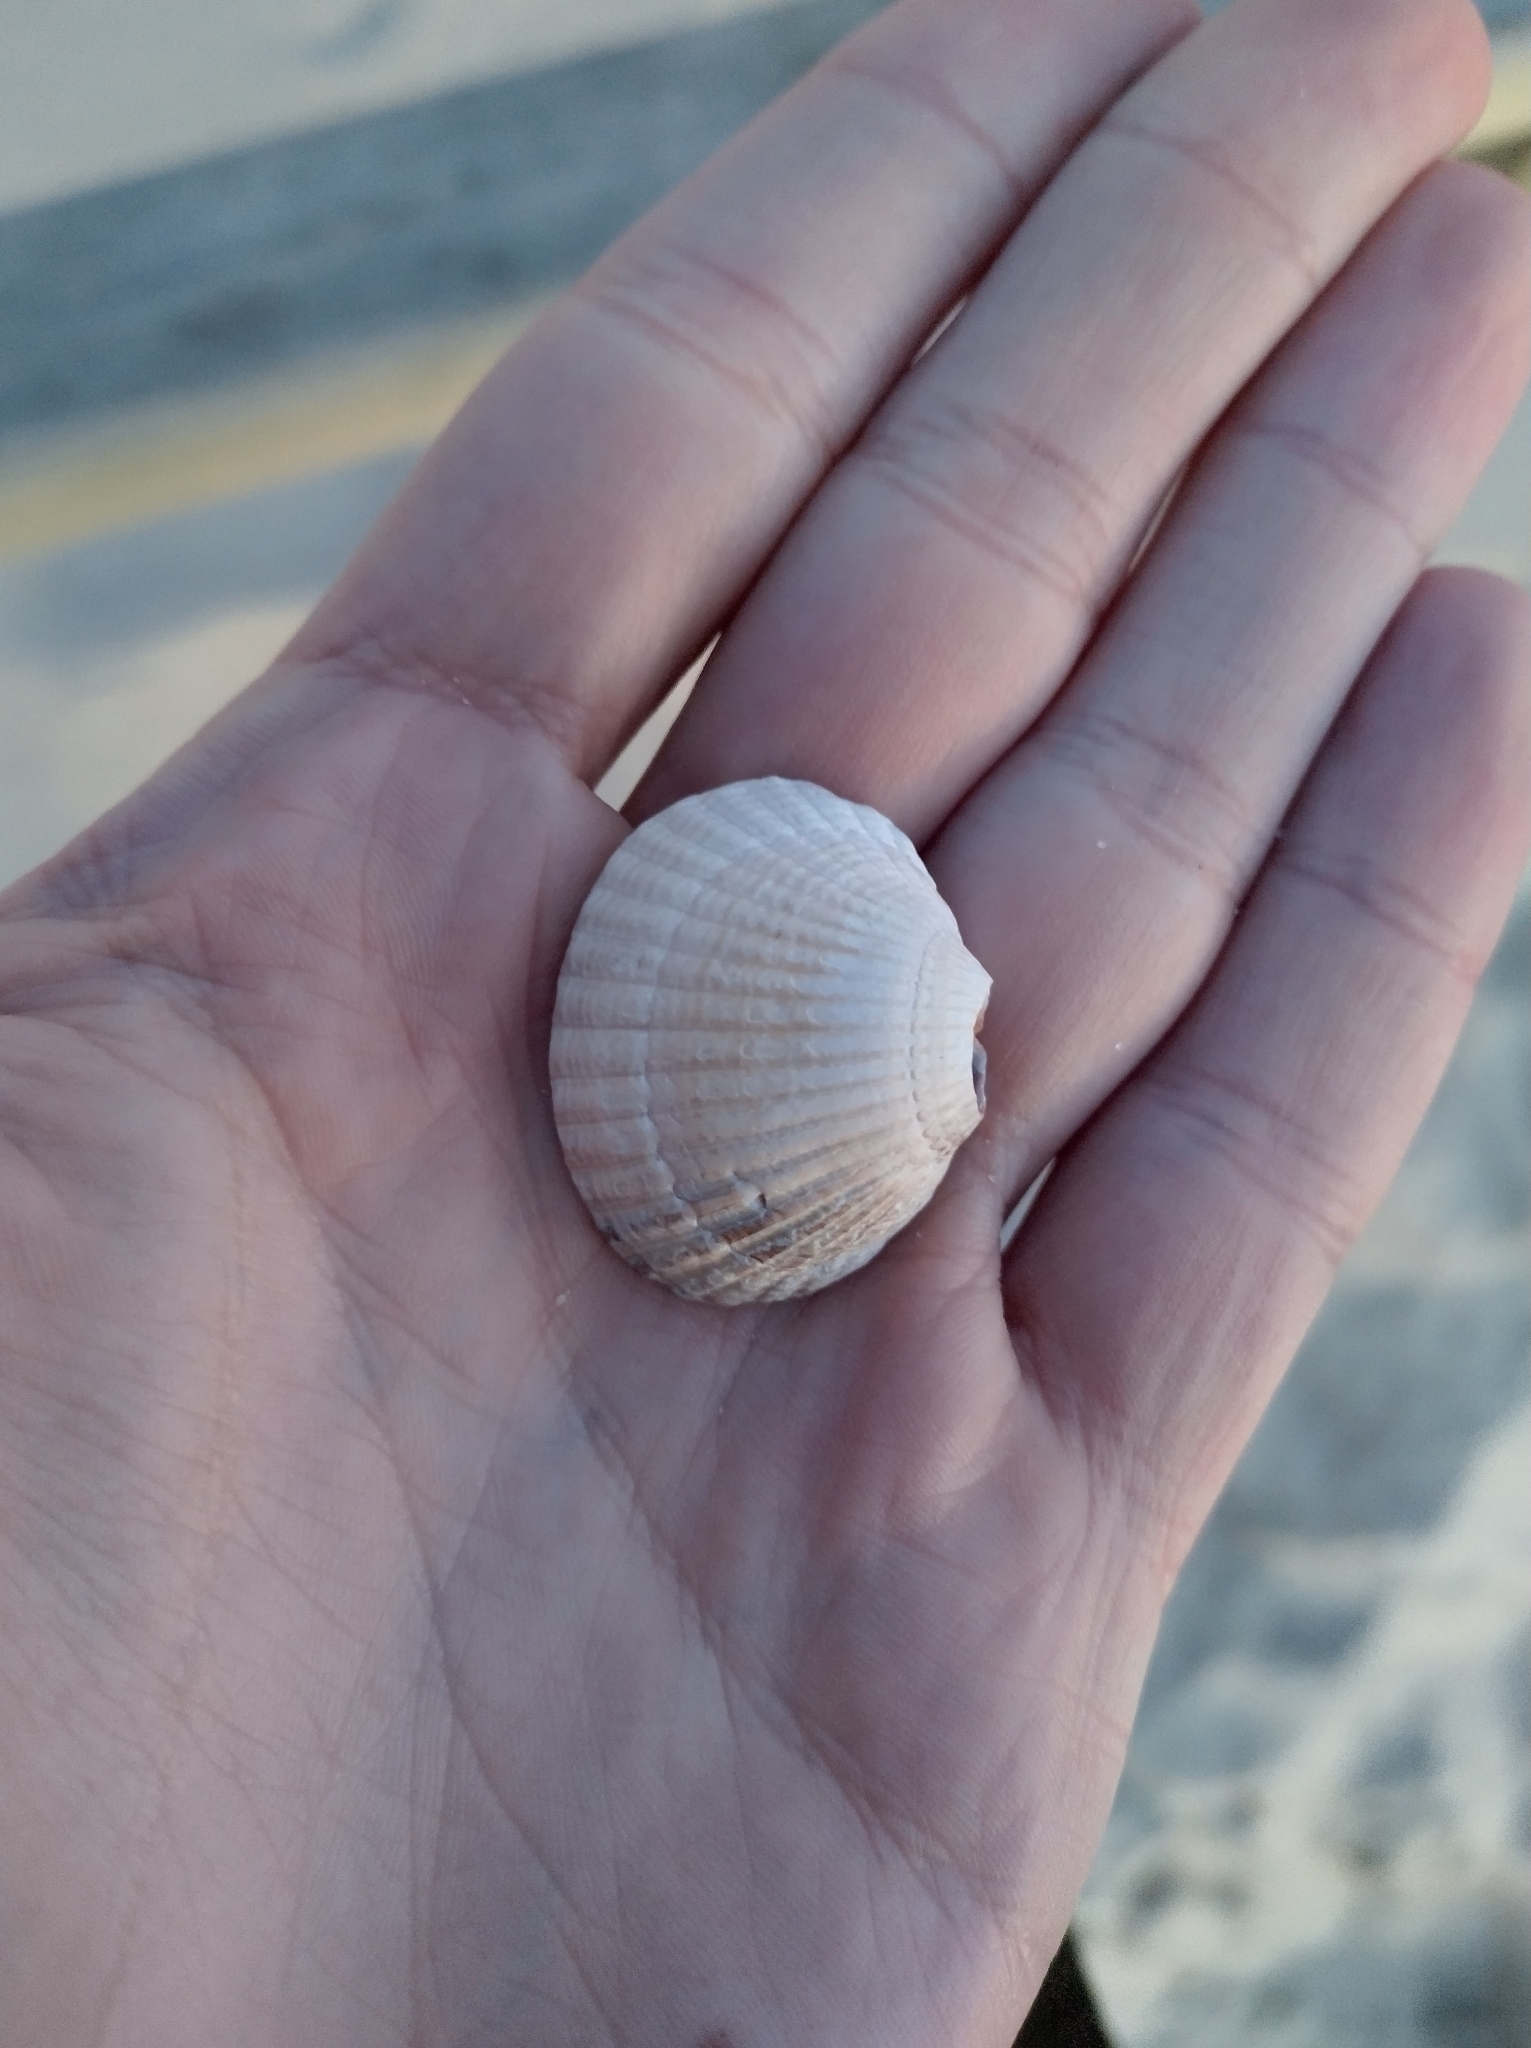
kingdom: Animalia
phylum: Mollusca
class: Bivalvia
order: Cardiida
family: Cardiidae
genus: Cerastoderma
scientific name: Cerastoderma edule
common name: Common cockle
